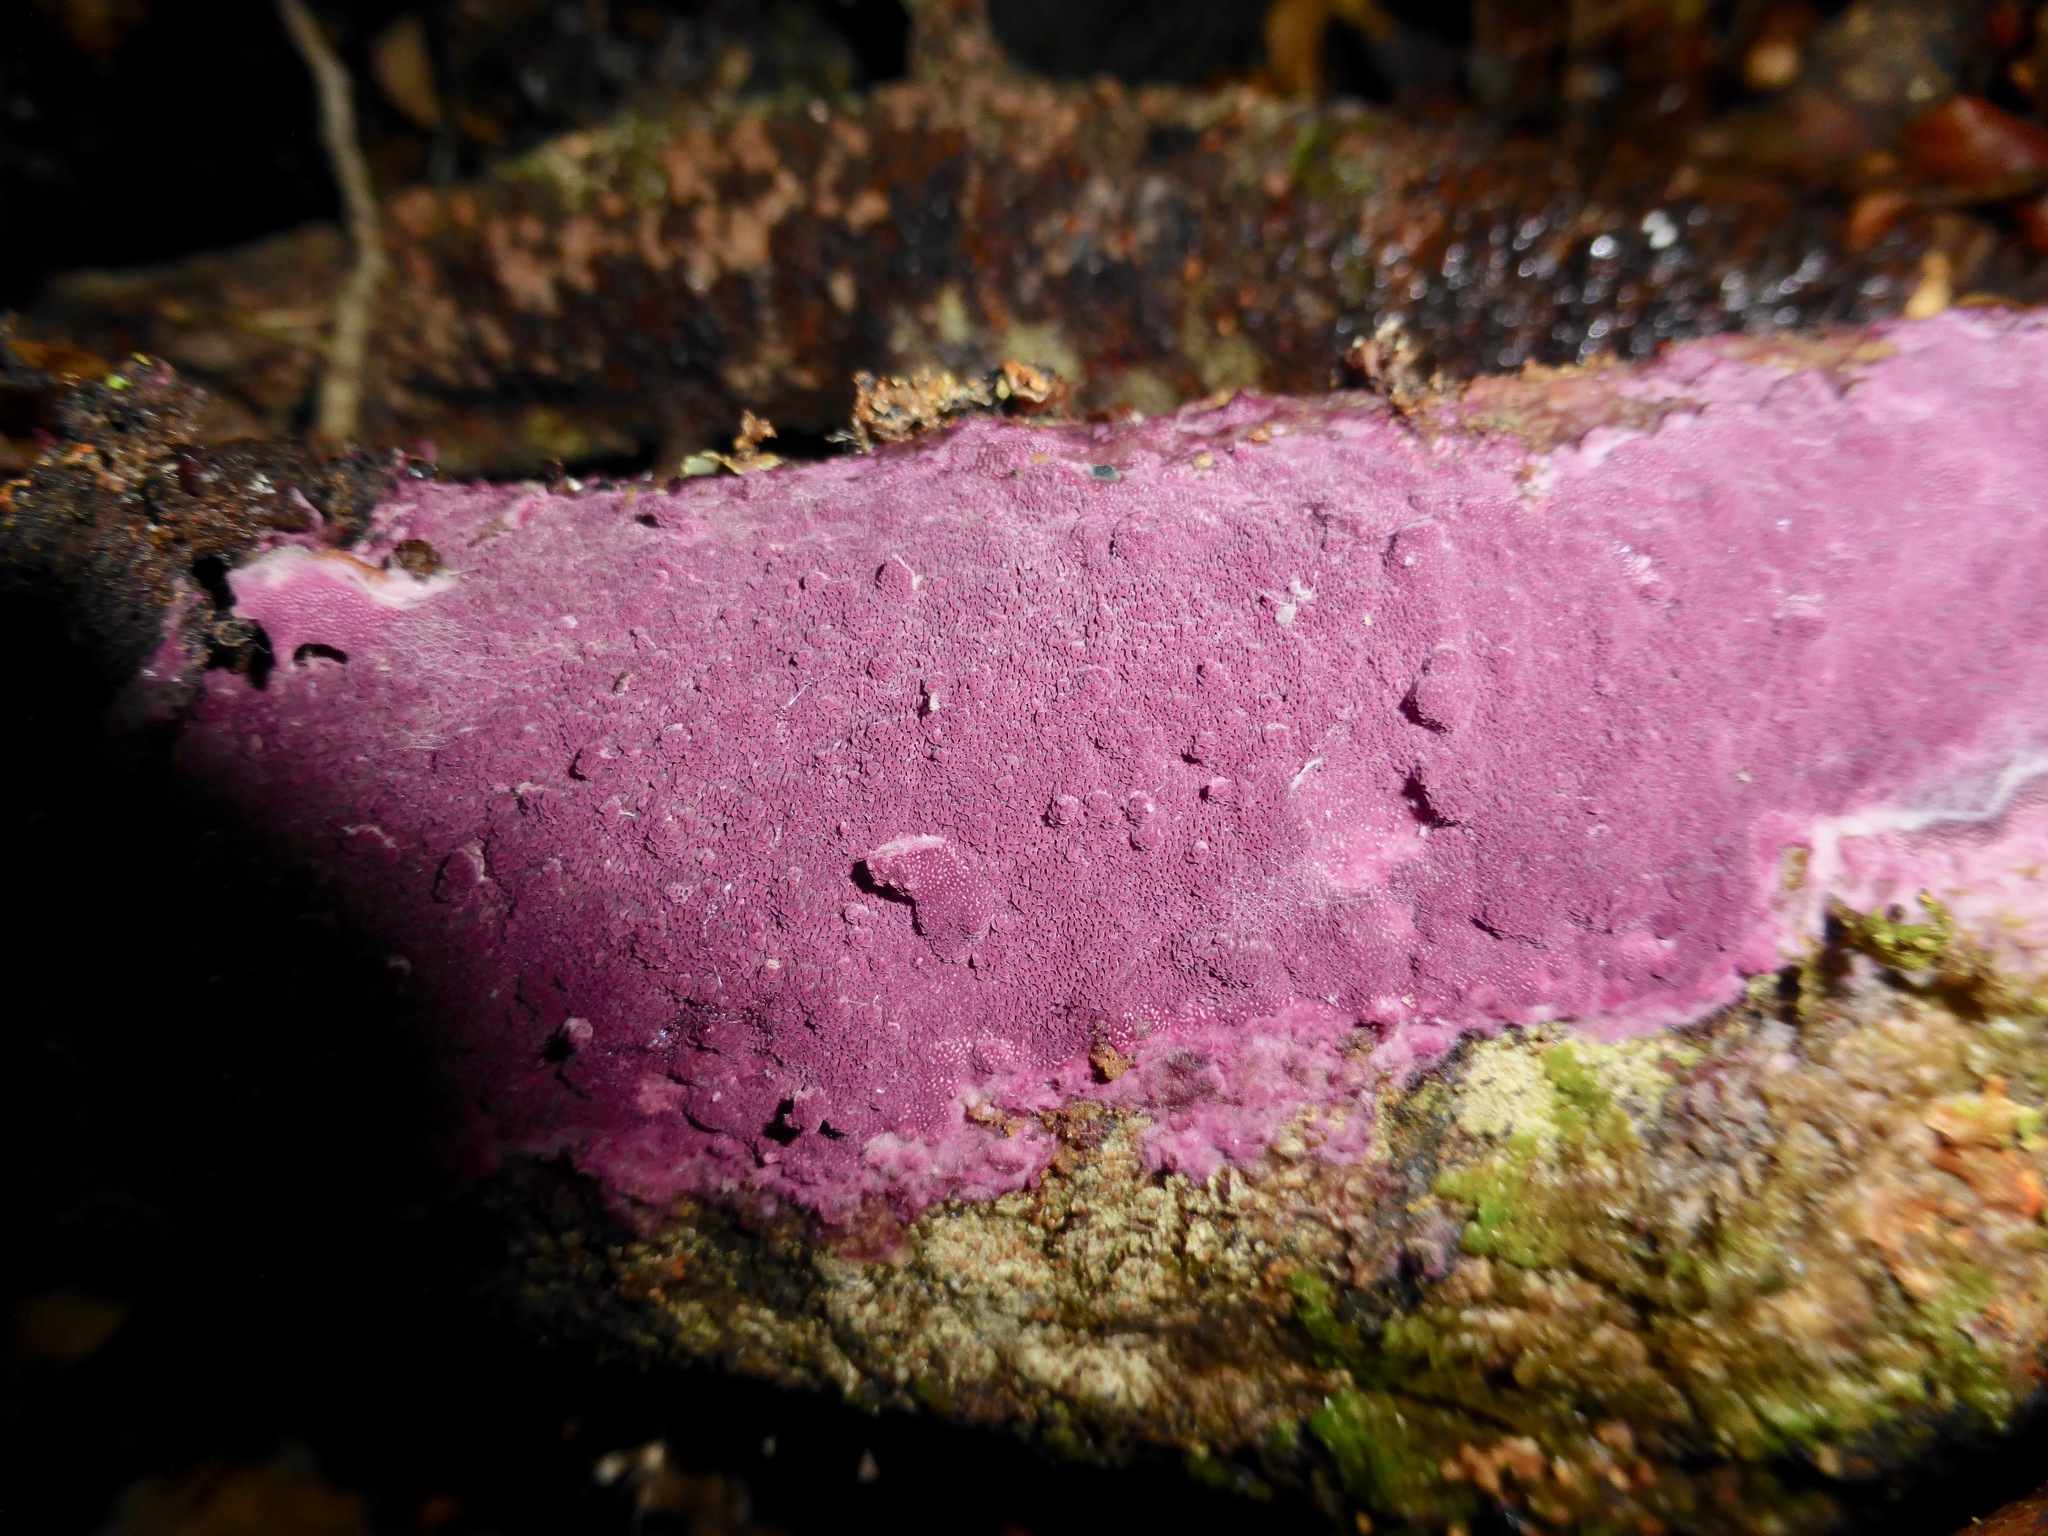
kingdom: Fungi
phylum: Basidiomycota
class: Agaricomycetes
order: Polyporales
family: Irpicaceae
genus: Byssomerulius
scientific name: Byssomerulius psittacinus
